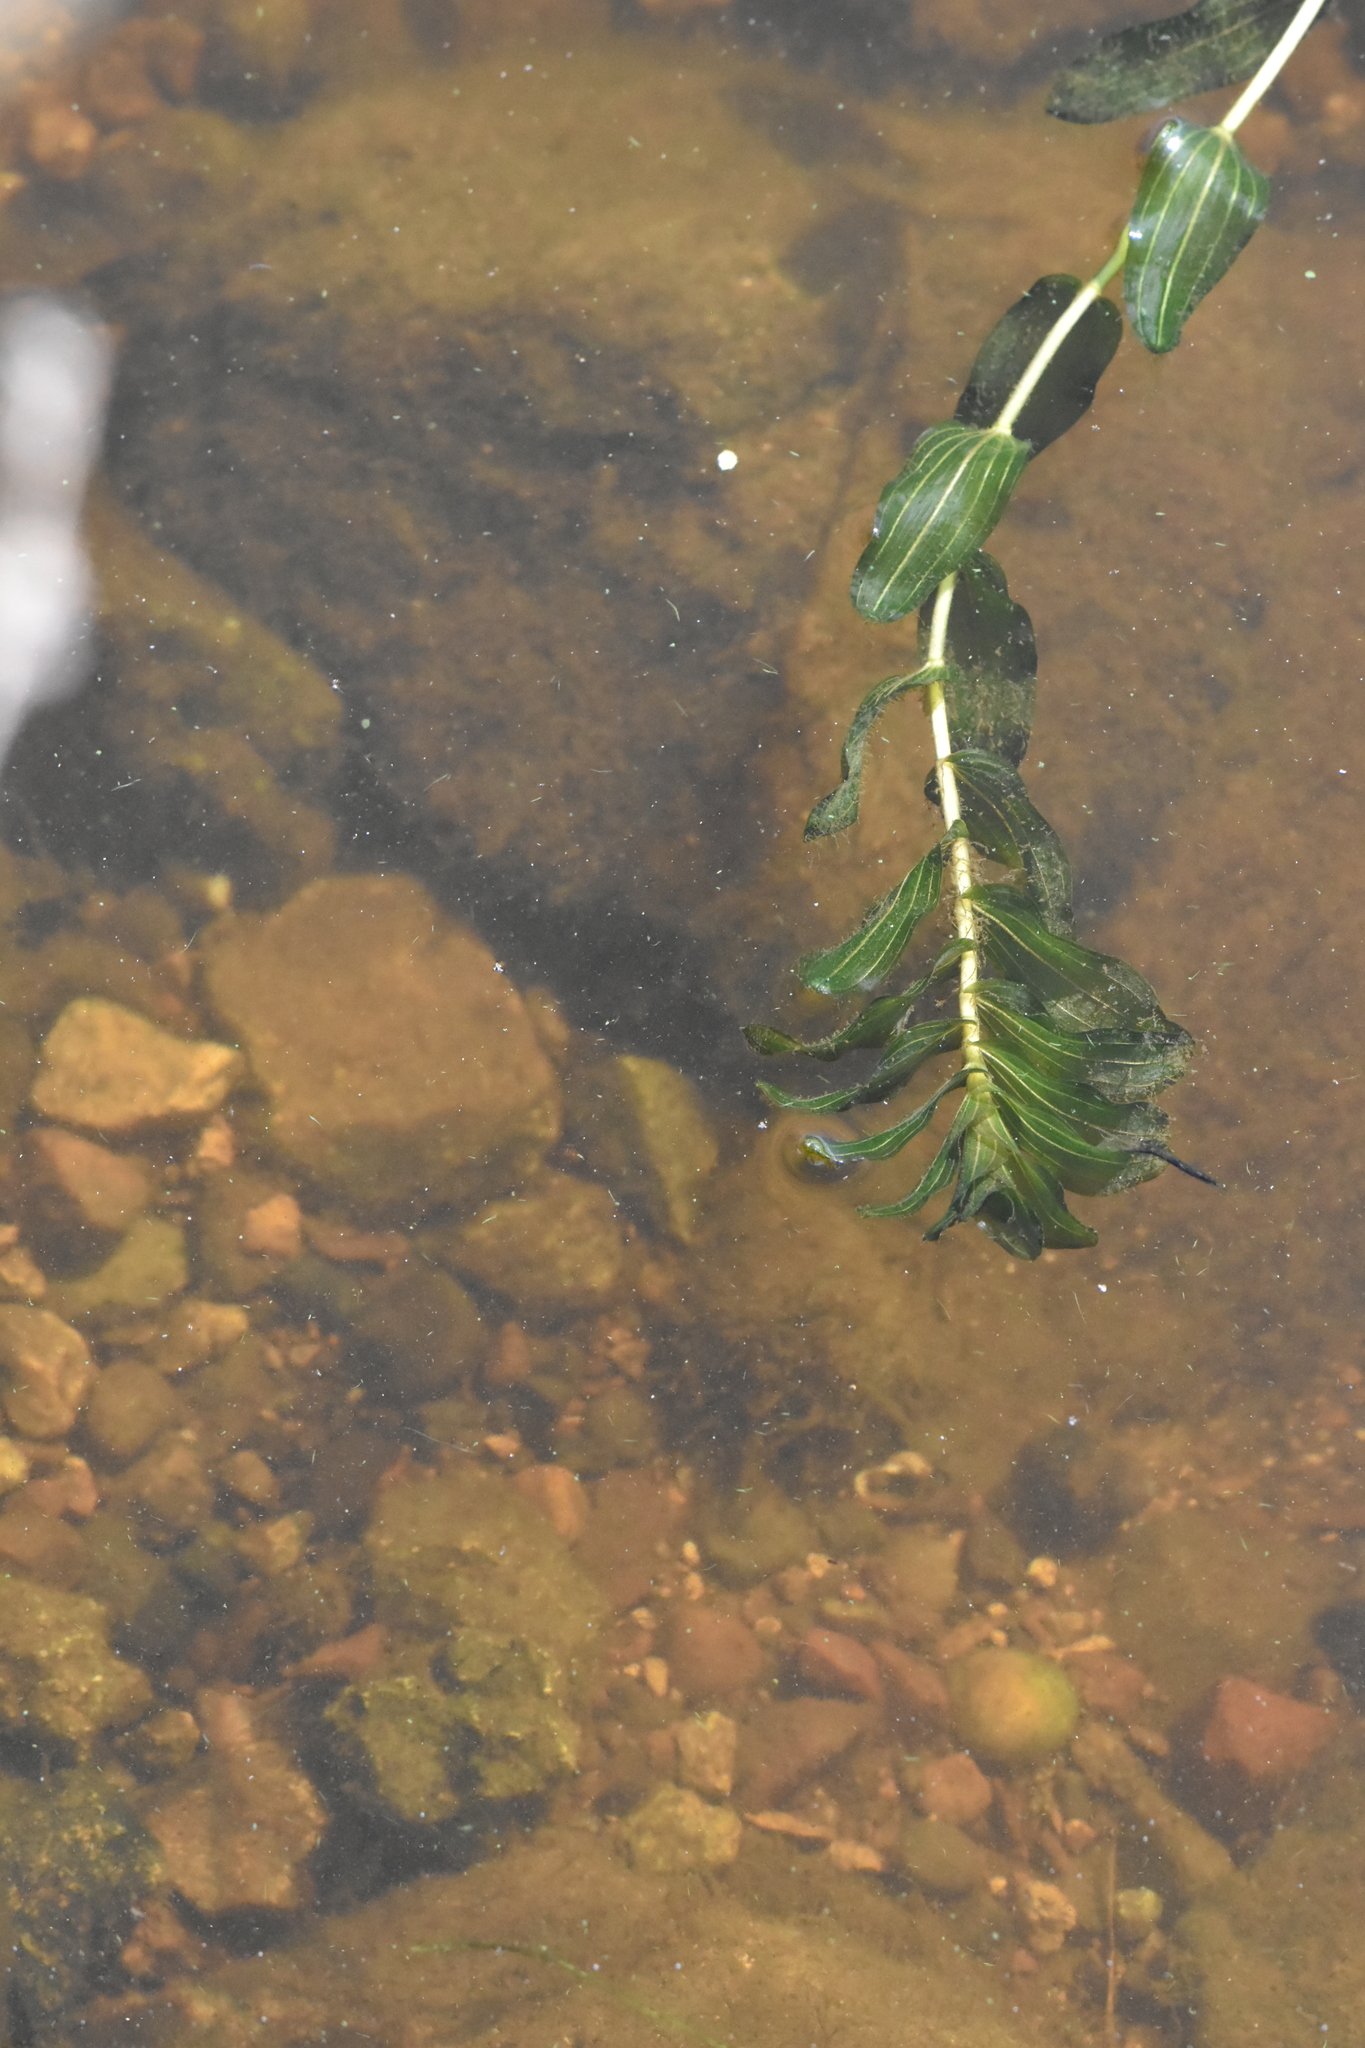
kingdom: Plantae
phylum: Tracheophyta
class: Liliopsida
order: Alismatales
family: Potamogetonaceae
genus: Potamogeton
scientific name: Potamogeton perfoliatus
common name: Perfoliate pondweed
